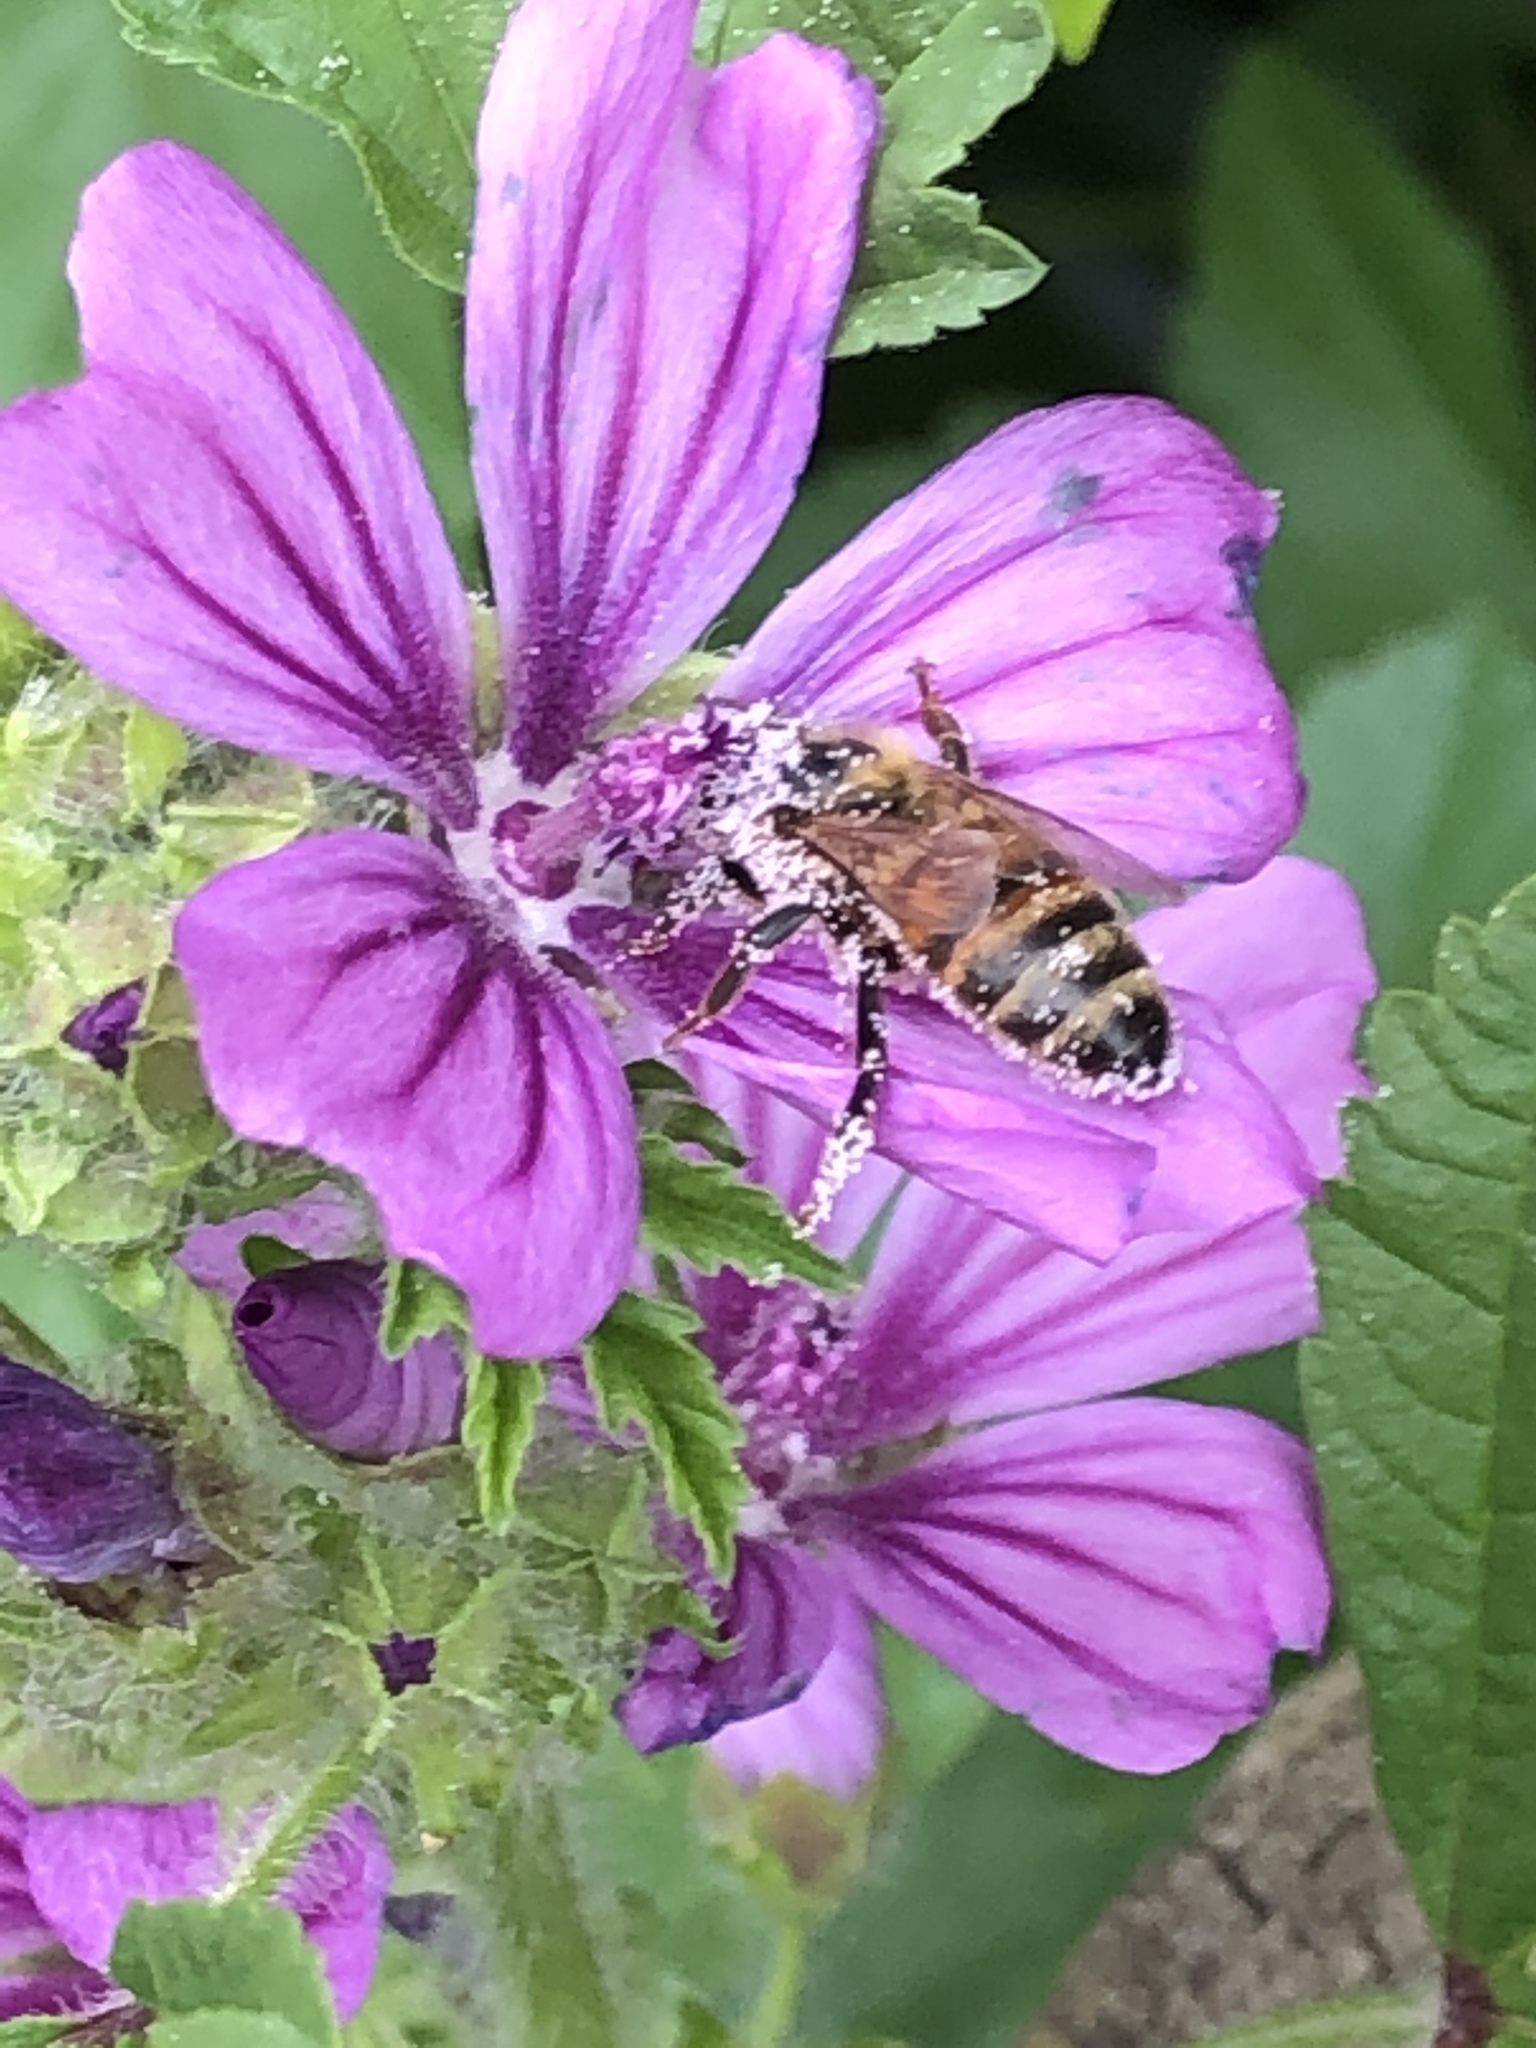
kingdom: Animalia
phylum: Arthropoda
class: Insecta
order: Hymenoptera
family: Apidae
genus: Apis
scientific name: Apis mellifera
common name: Honey bee
